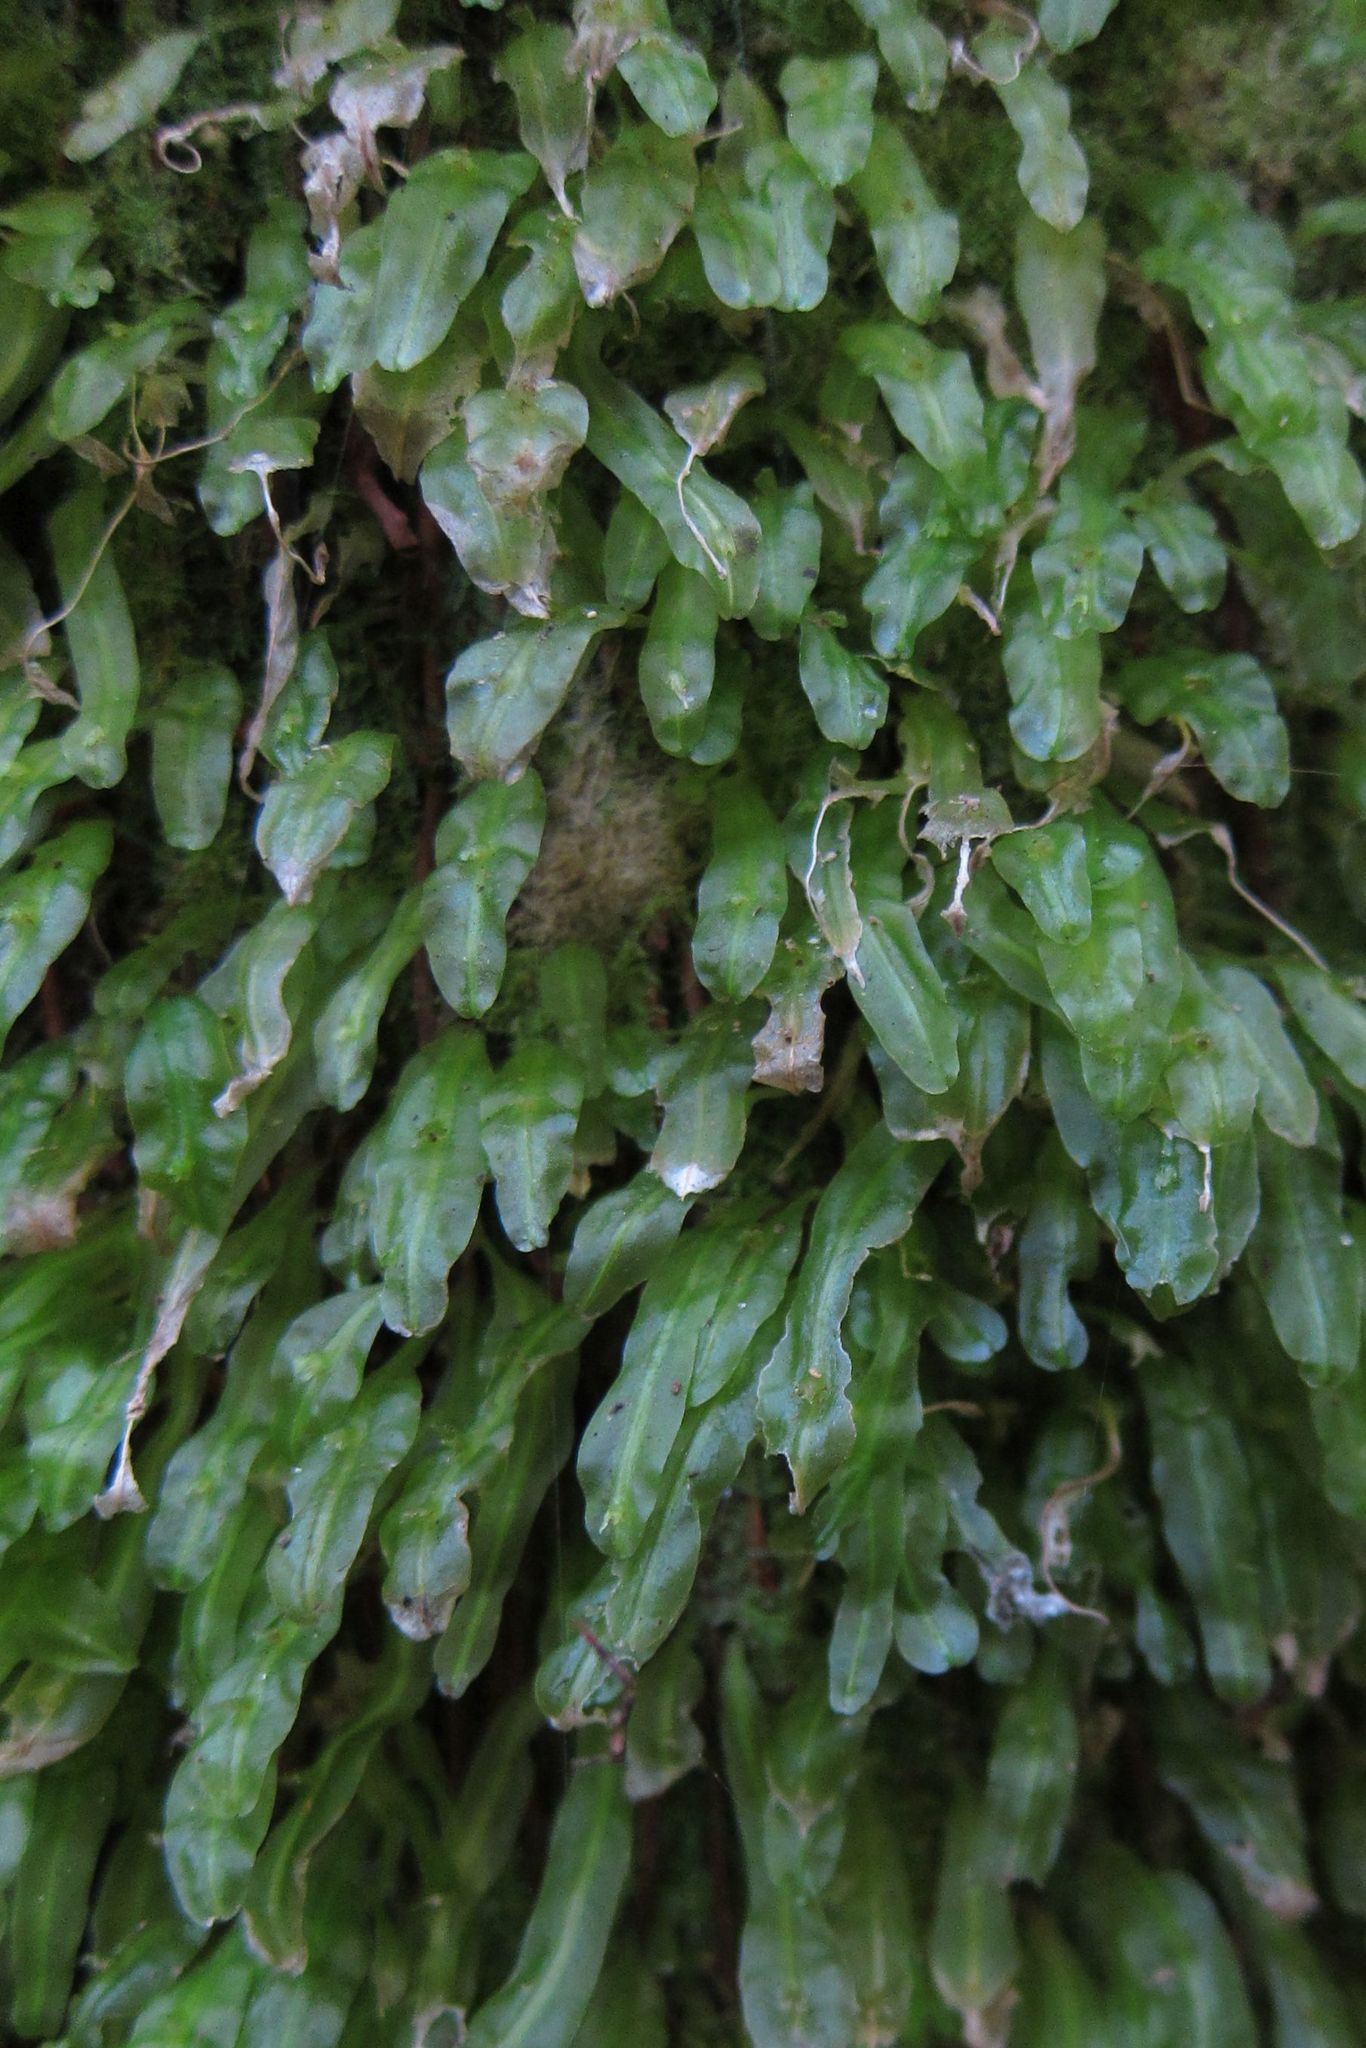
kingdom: Plantae
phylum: Marchantiophyta
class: Jungermanniopsida
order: Pallaviciniales
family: Pallaviciniaceae
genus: Symphyogyna
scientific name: Symphyogyna subsimplex
